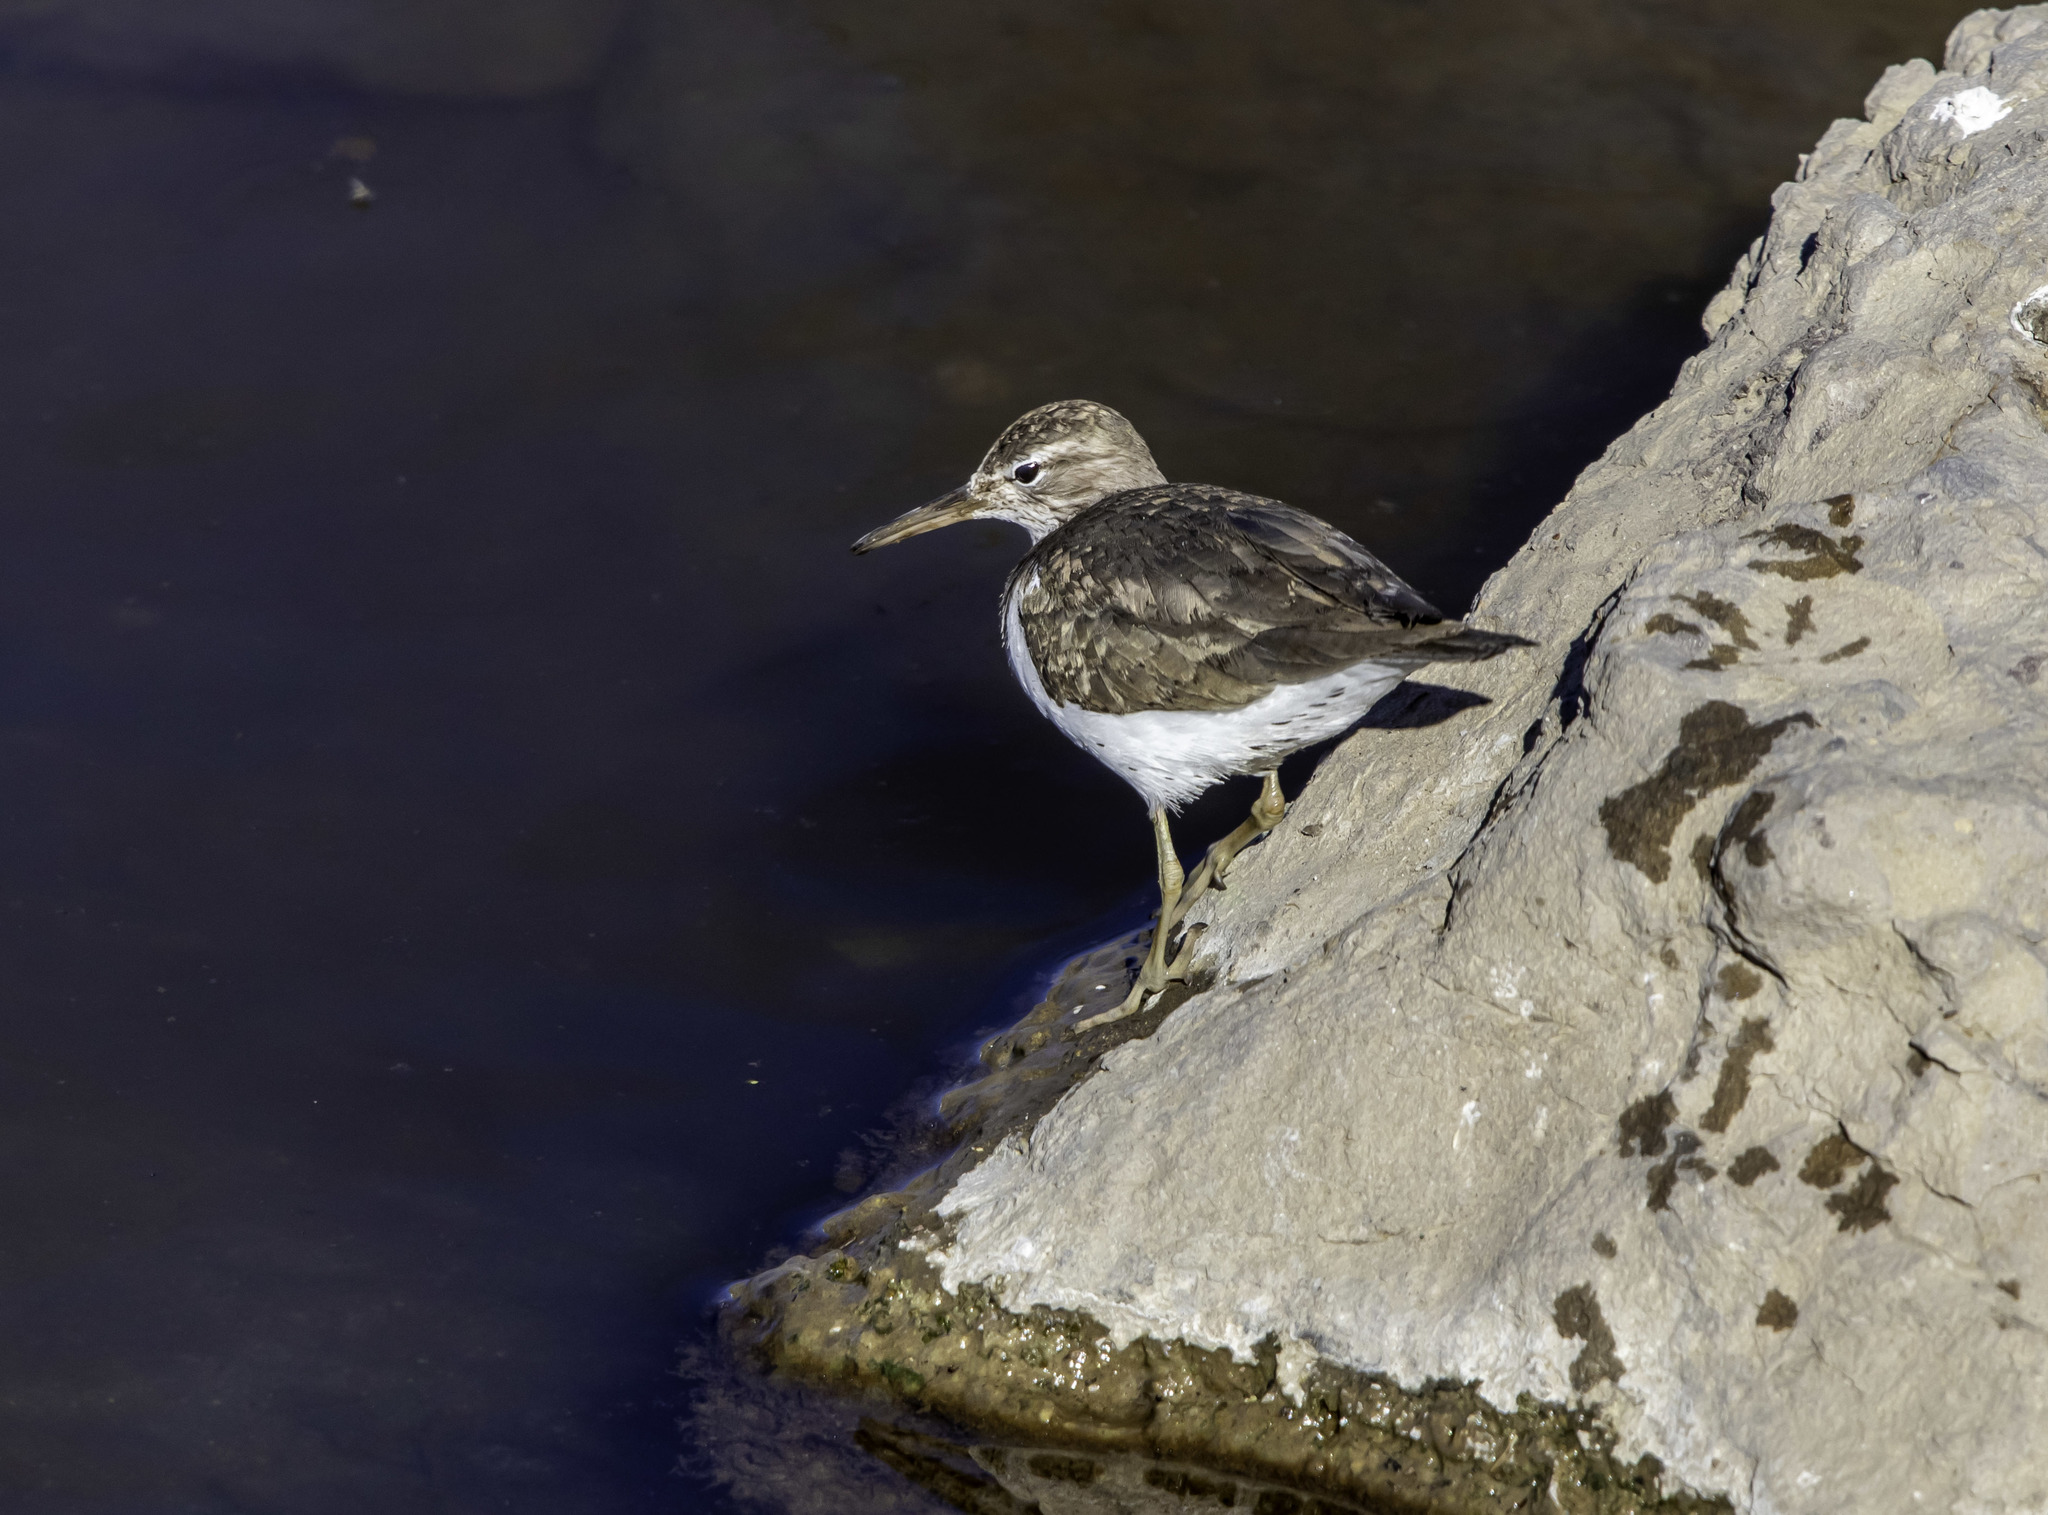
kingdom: Animalia
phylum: Chordata
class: Aves
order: Charadriiformes
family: Scolopacidae
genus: Actitis
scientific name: Actitis macularius
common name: Spotted sandpiper
